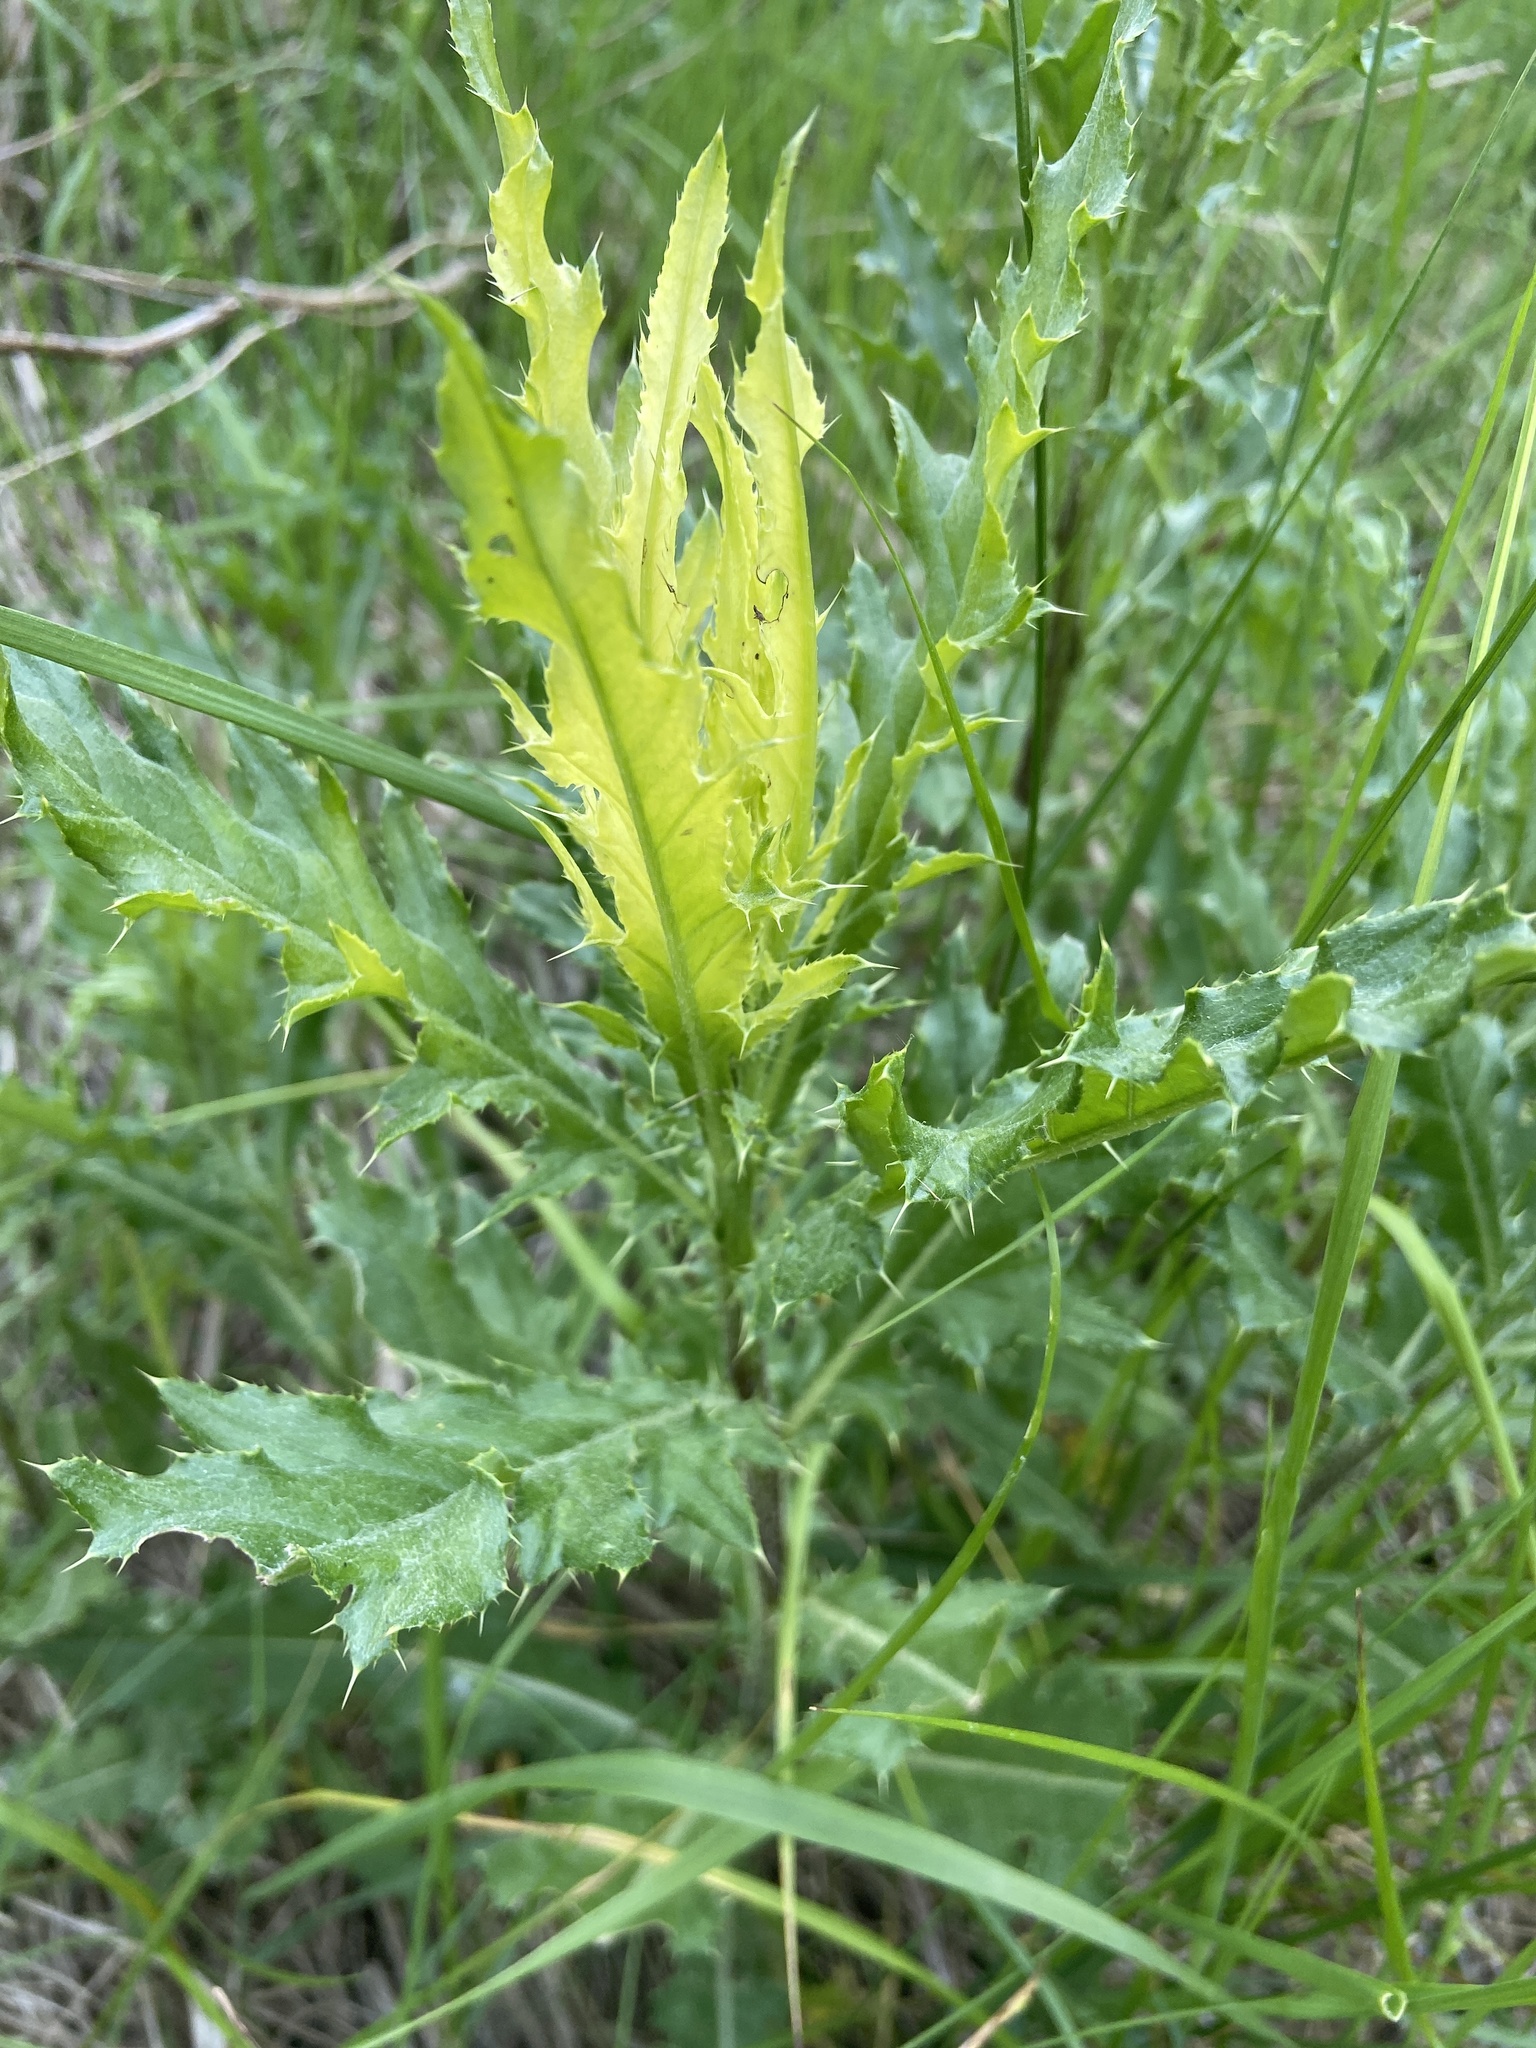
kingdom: Plantae
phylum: Tracheophyta
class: Magnoliopsida
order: Asterales
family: Asteraceae
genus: Cirsium
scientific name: Cirsium arvense
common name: Creeping thistle
